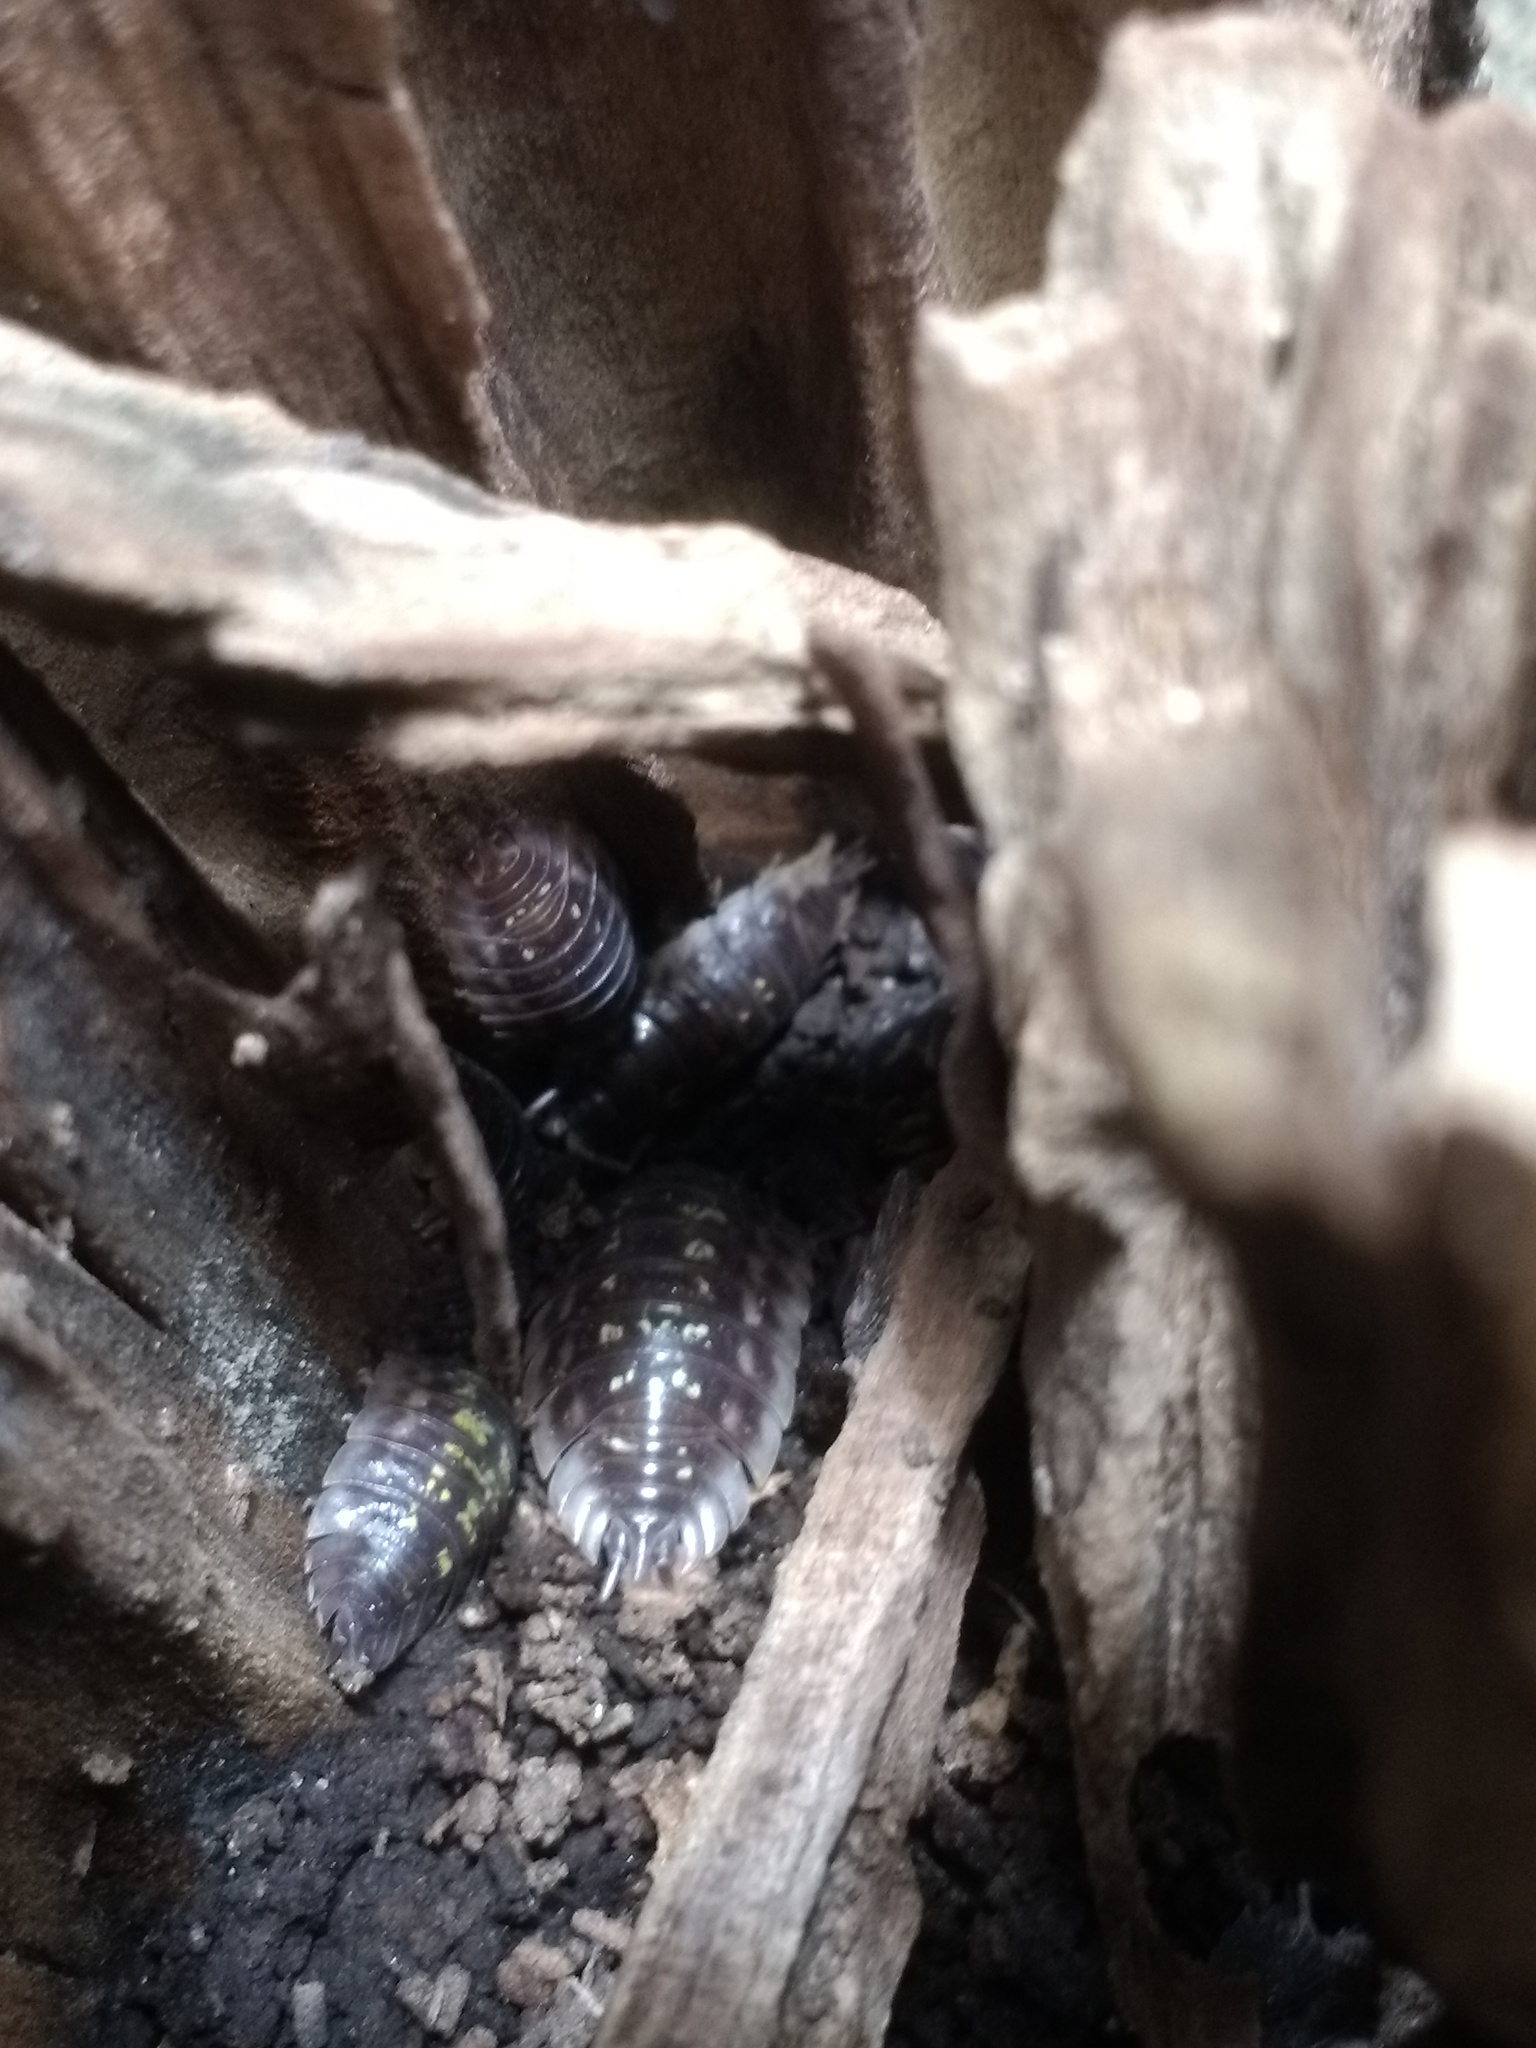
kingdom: Animalia
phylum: Arthropoda
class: Malacostraca
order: Isopoda
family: Oniscidae
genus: Oniscus
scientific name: Oniscus asellus
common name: Common shiny woodlouse
